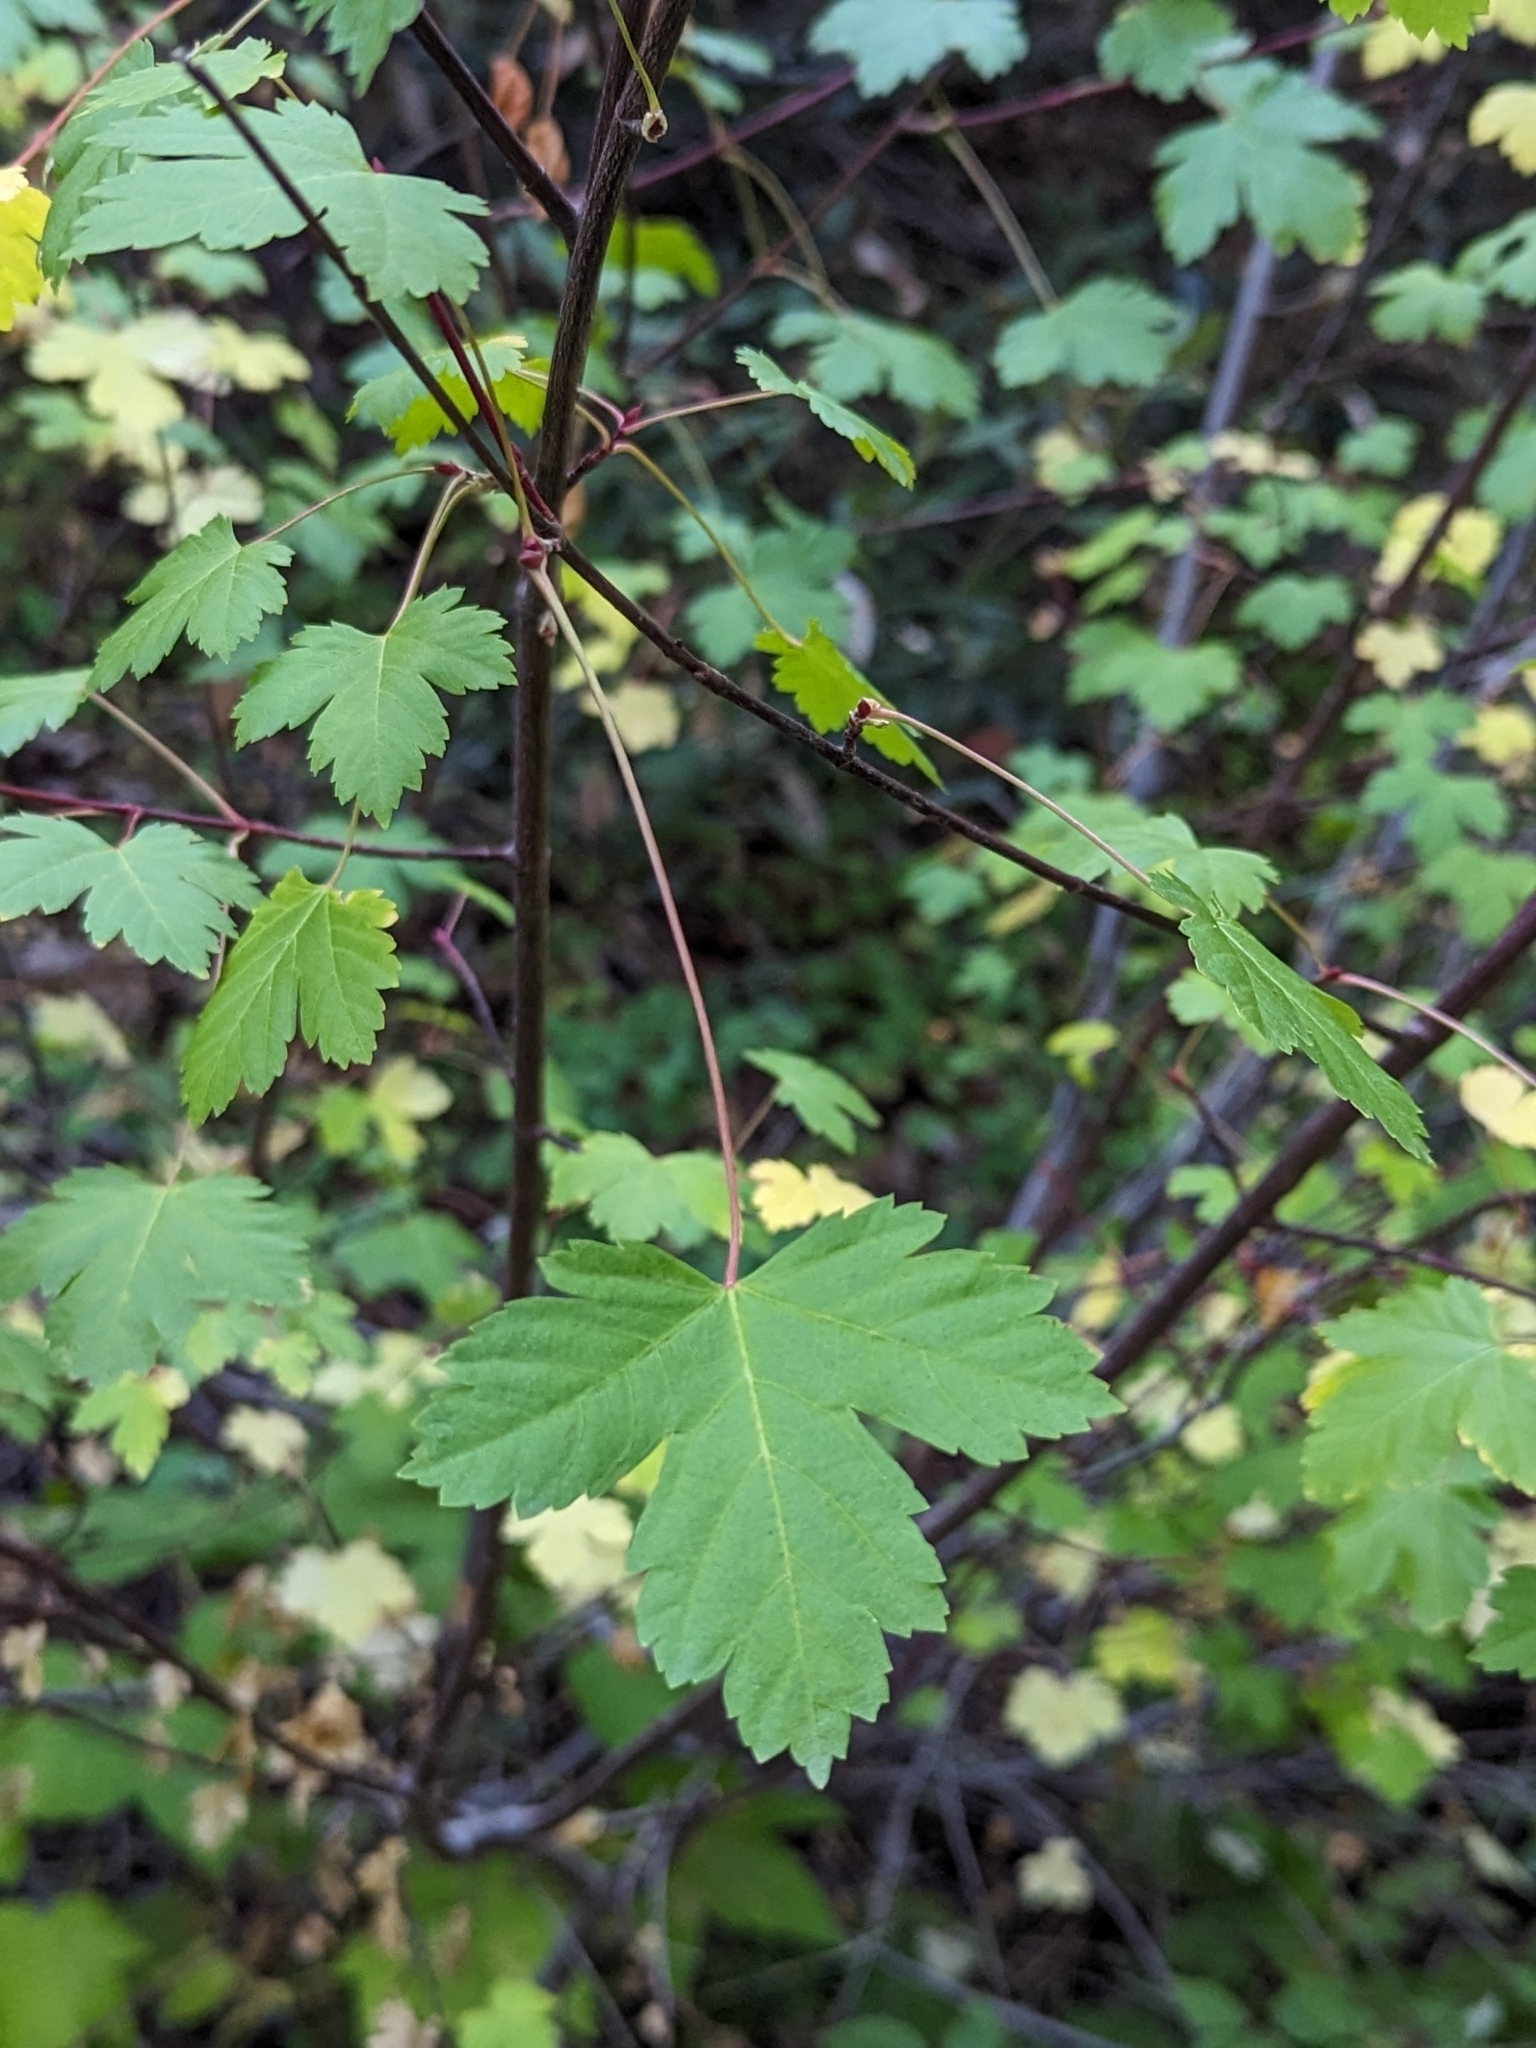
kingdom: Plantae
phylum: Tracheophyta
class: Magnoliopsida
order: Sapindales
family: Sapindaceae
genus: Acer
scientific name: Acer glabrum
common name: Rocky mountain maple
